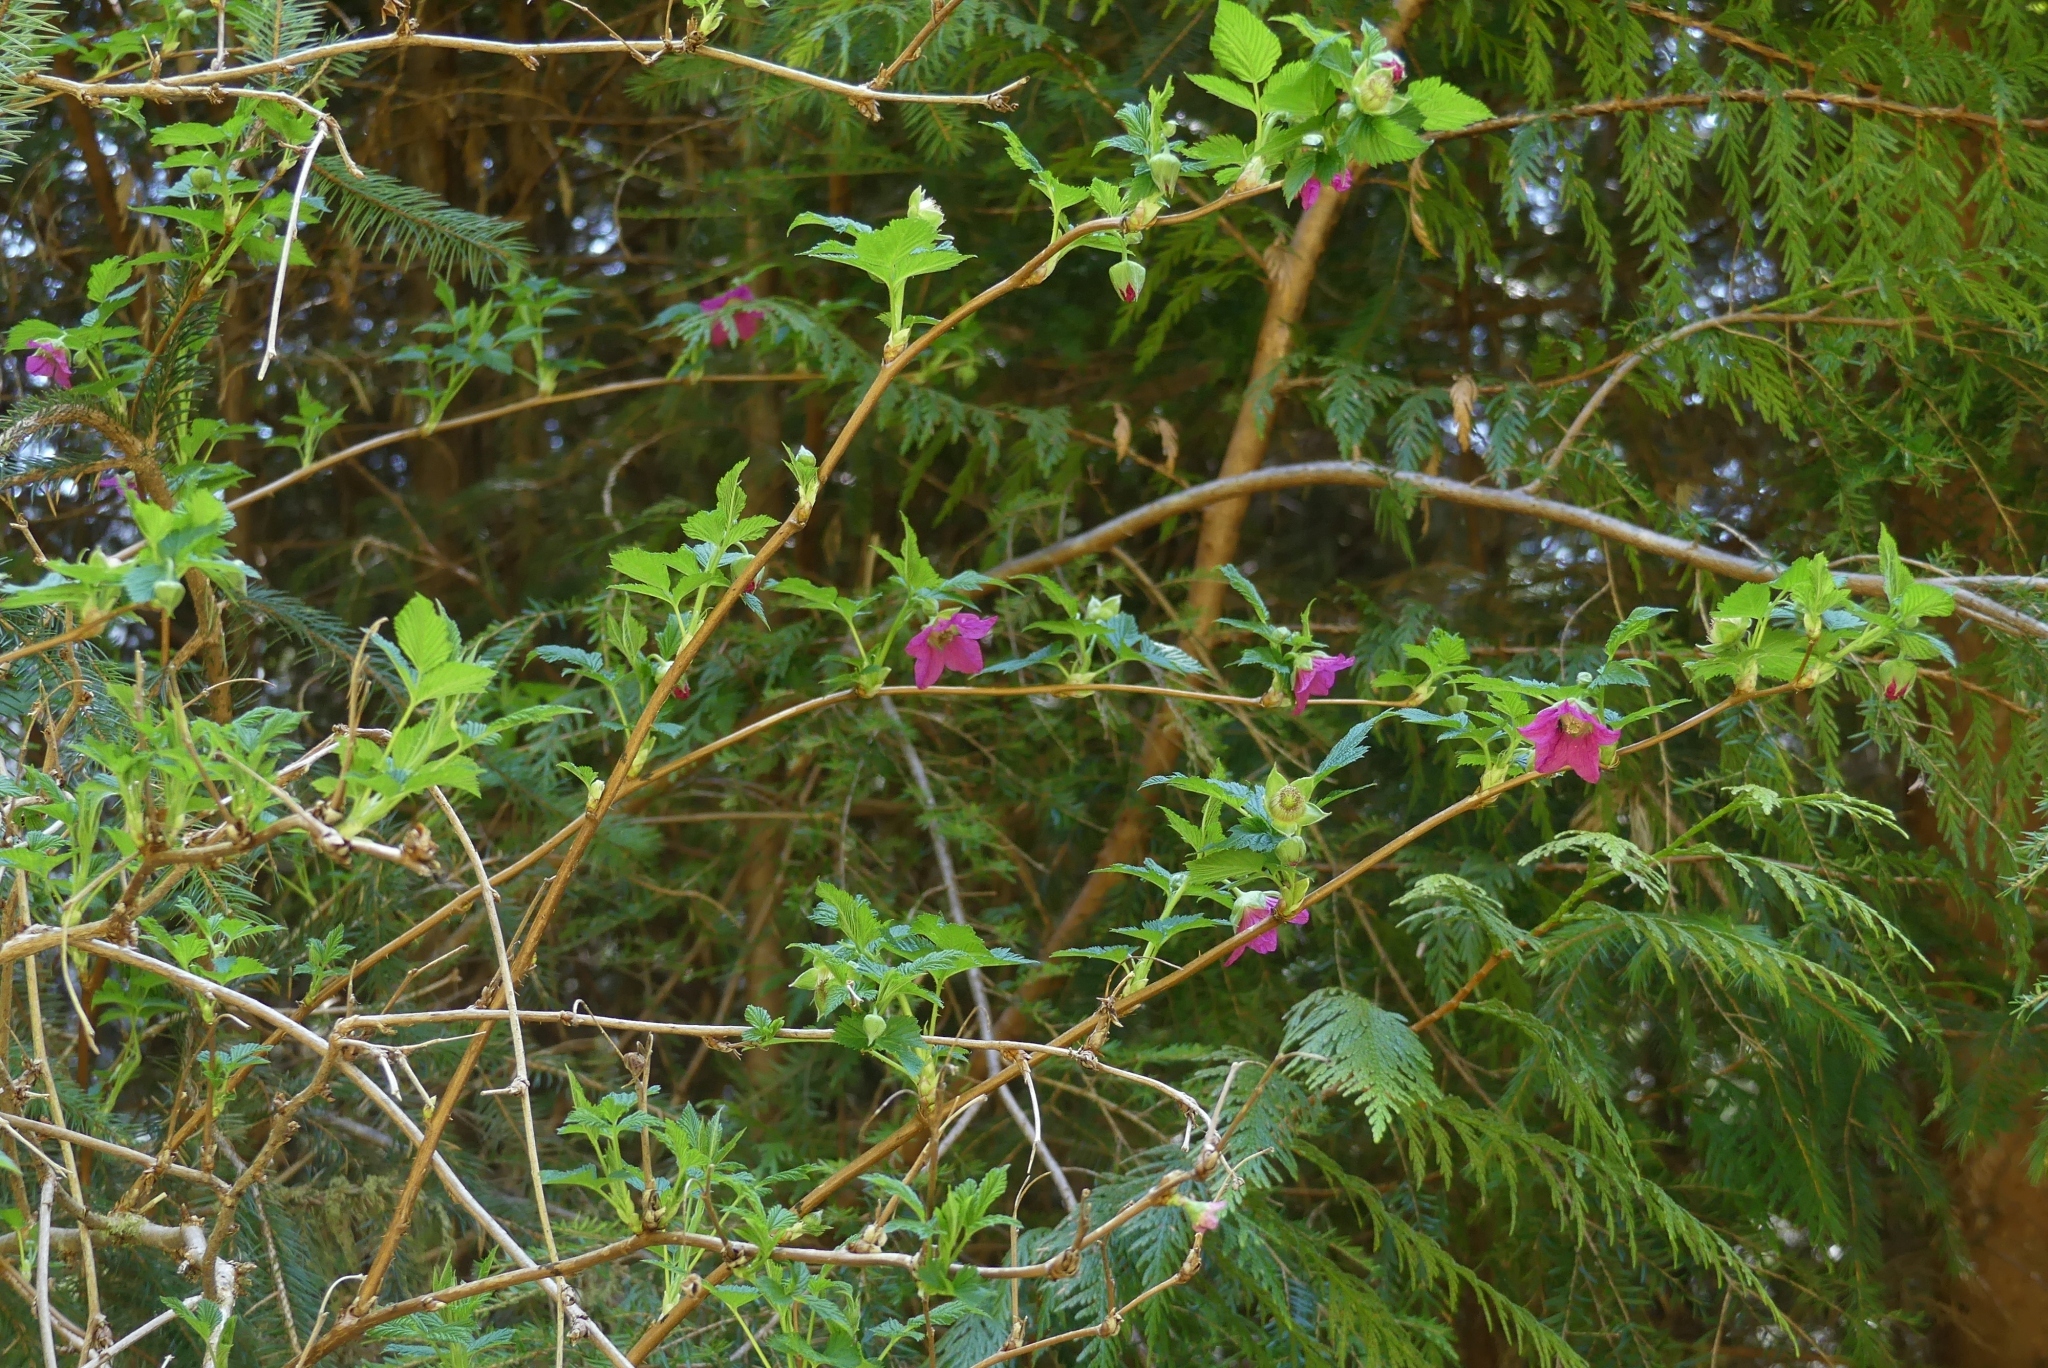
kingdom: Plantae
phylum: Tracheophyta
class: Magnoliopsida
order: Rosales
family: Rosaceae
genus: Rubus
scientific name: Rubus spectabilis
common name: Salmonberry
